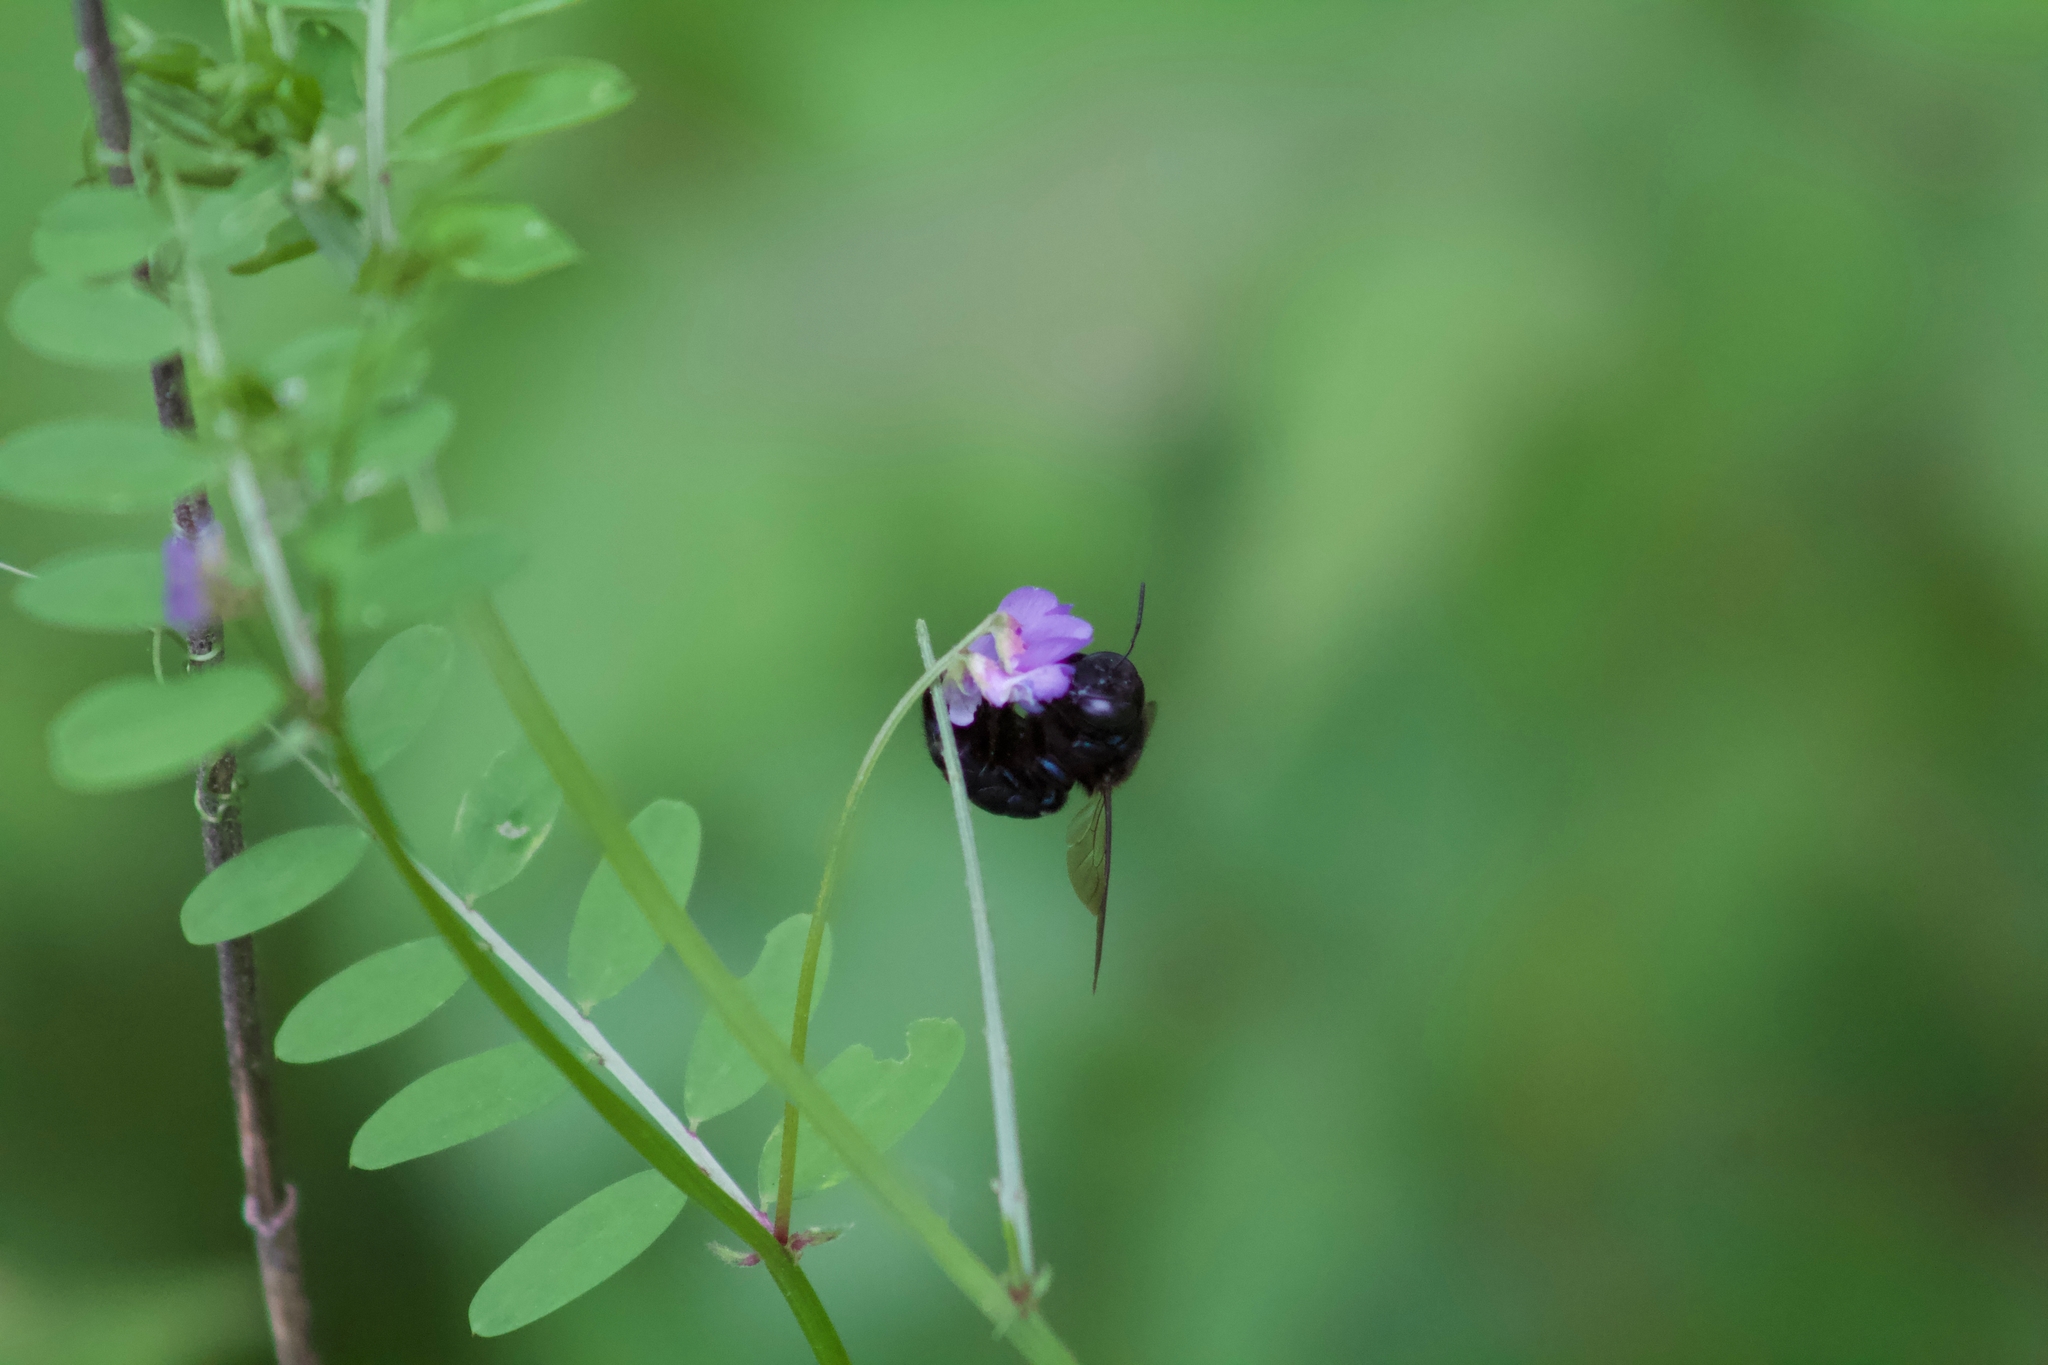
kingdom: Animalia
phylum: Arthropoda
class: Insecta
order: Hymenoptera
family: Apidae
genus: Xylocopa
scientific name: Xylocopa micans
